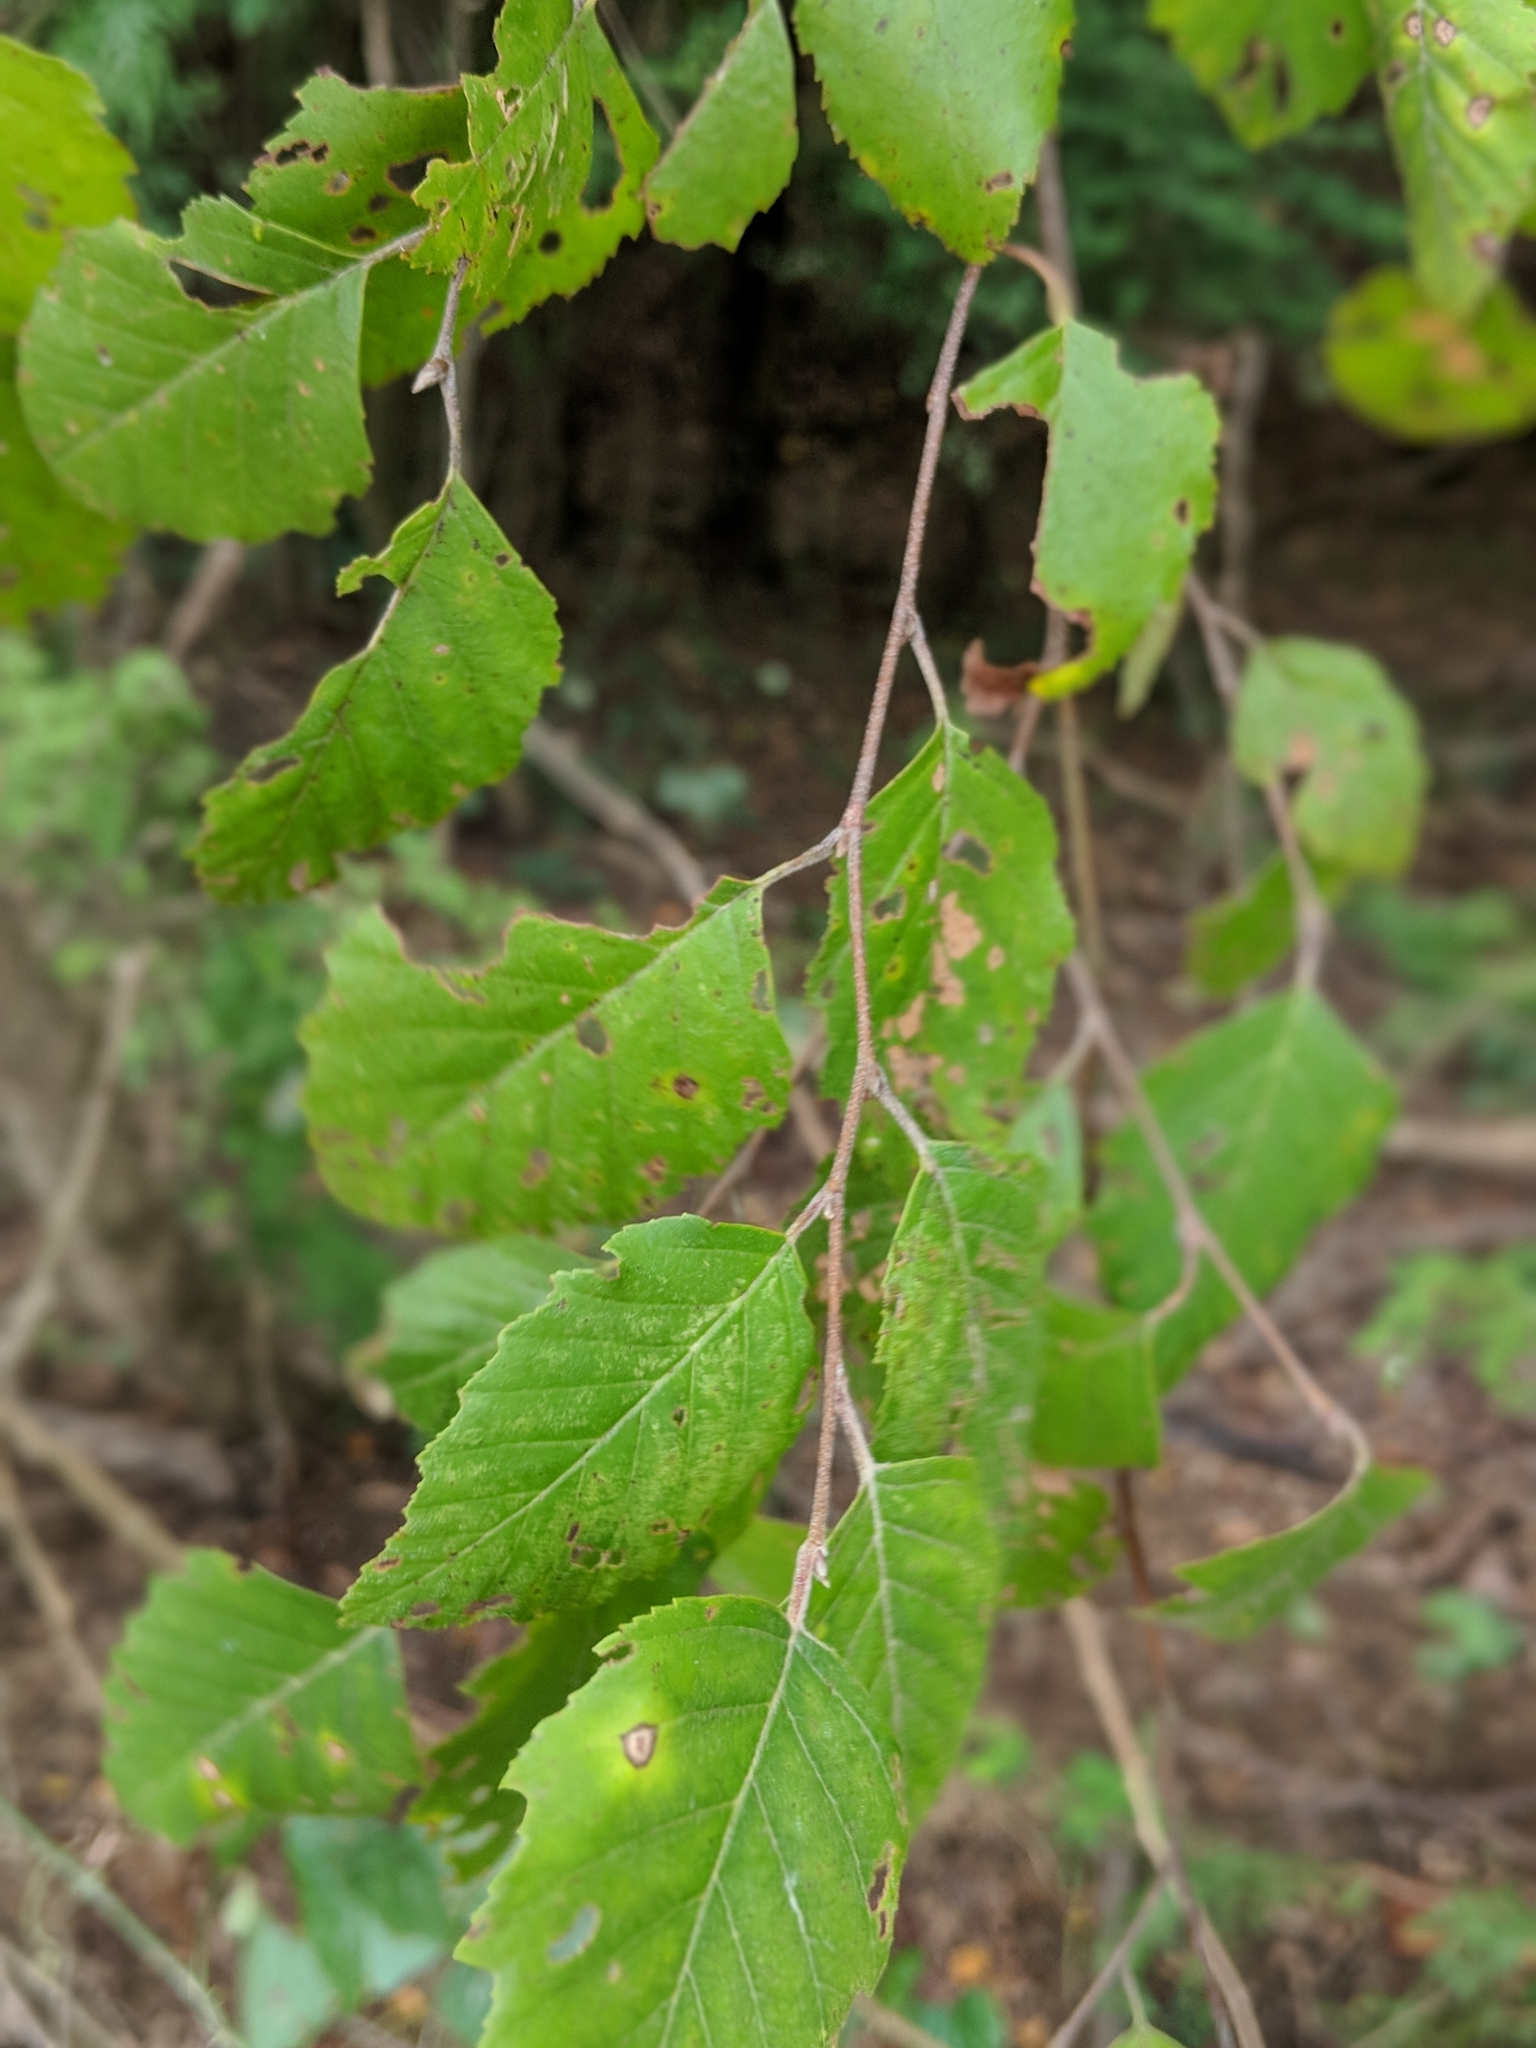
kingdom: Plantae
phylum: Tracheophyta
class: Magnoliopsida
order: Fagales
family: Betulaceae
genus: Betula
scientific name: Betula nigra
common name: Black birch
